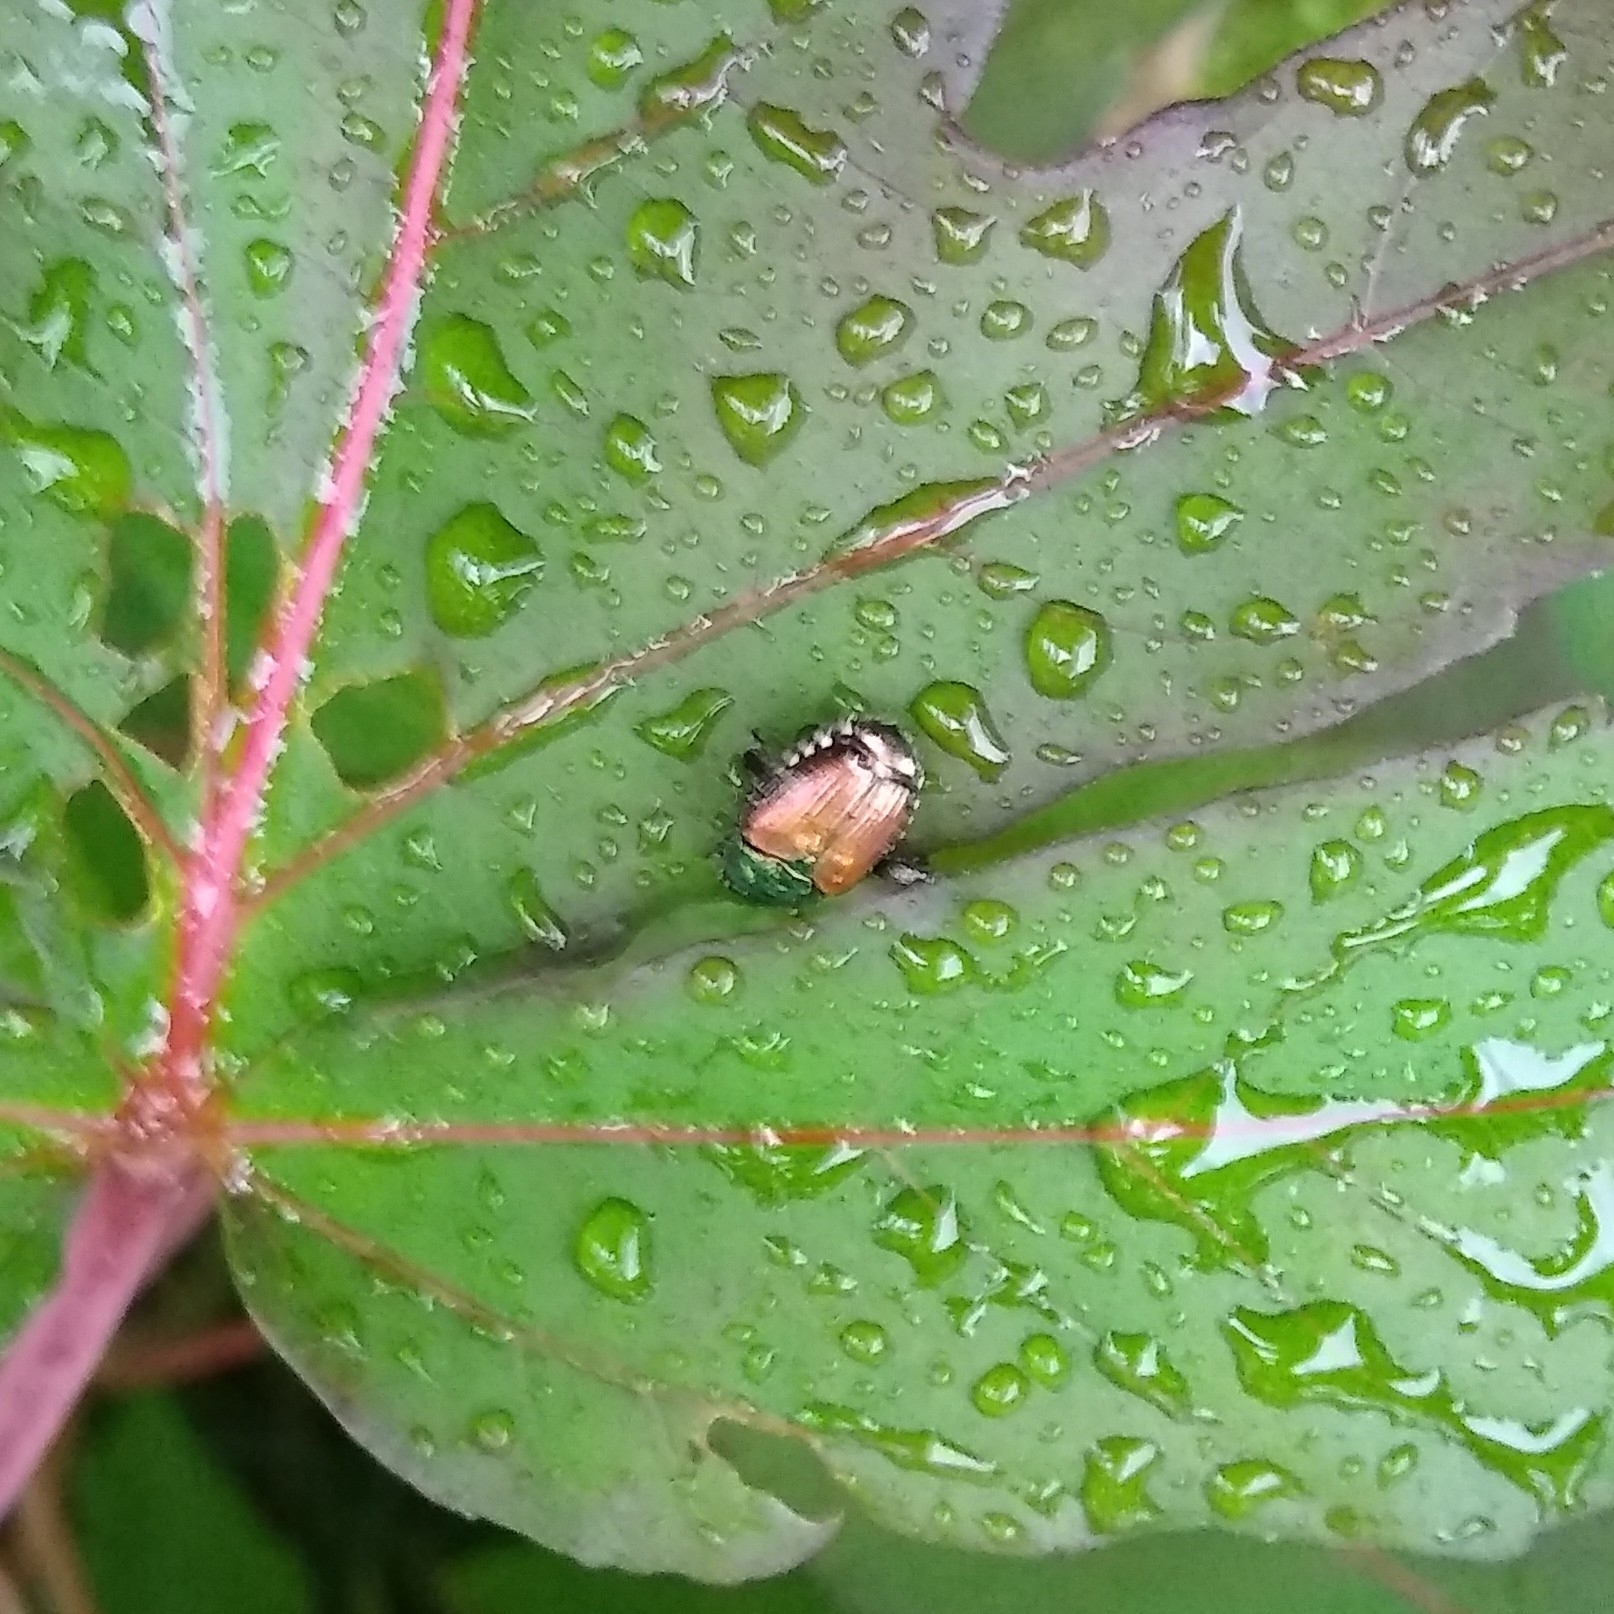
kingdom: Animalia
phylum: Arthropoda
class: Insecta
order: Coleoptera
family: Scarabaeidae
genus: Popillia
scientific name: Popillia japonica
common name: Japanese beetle
